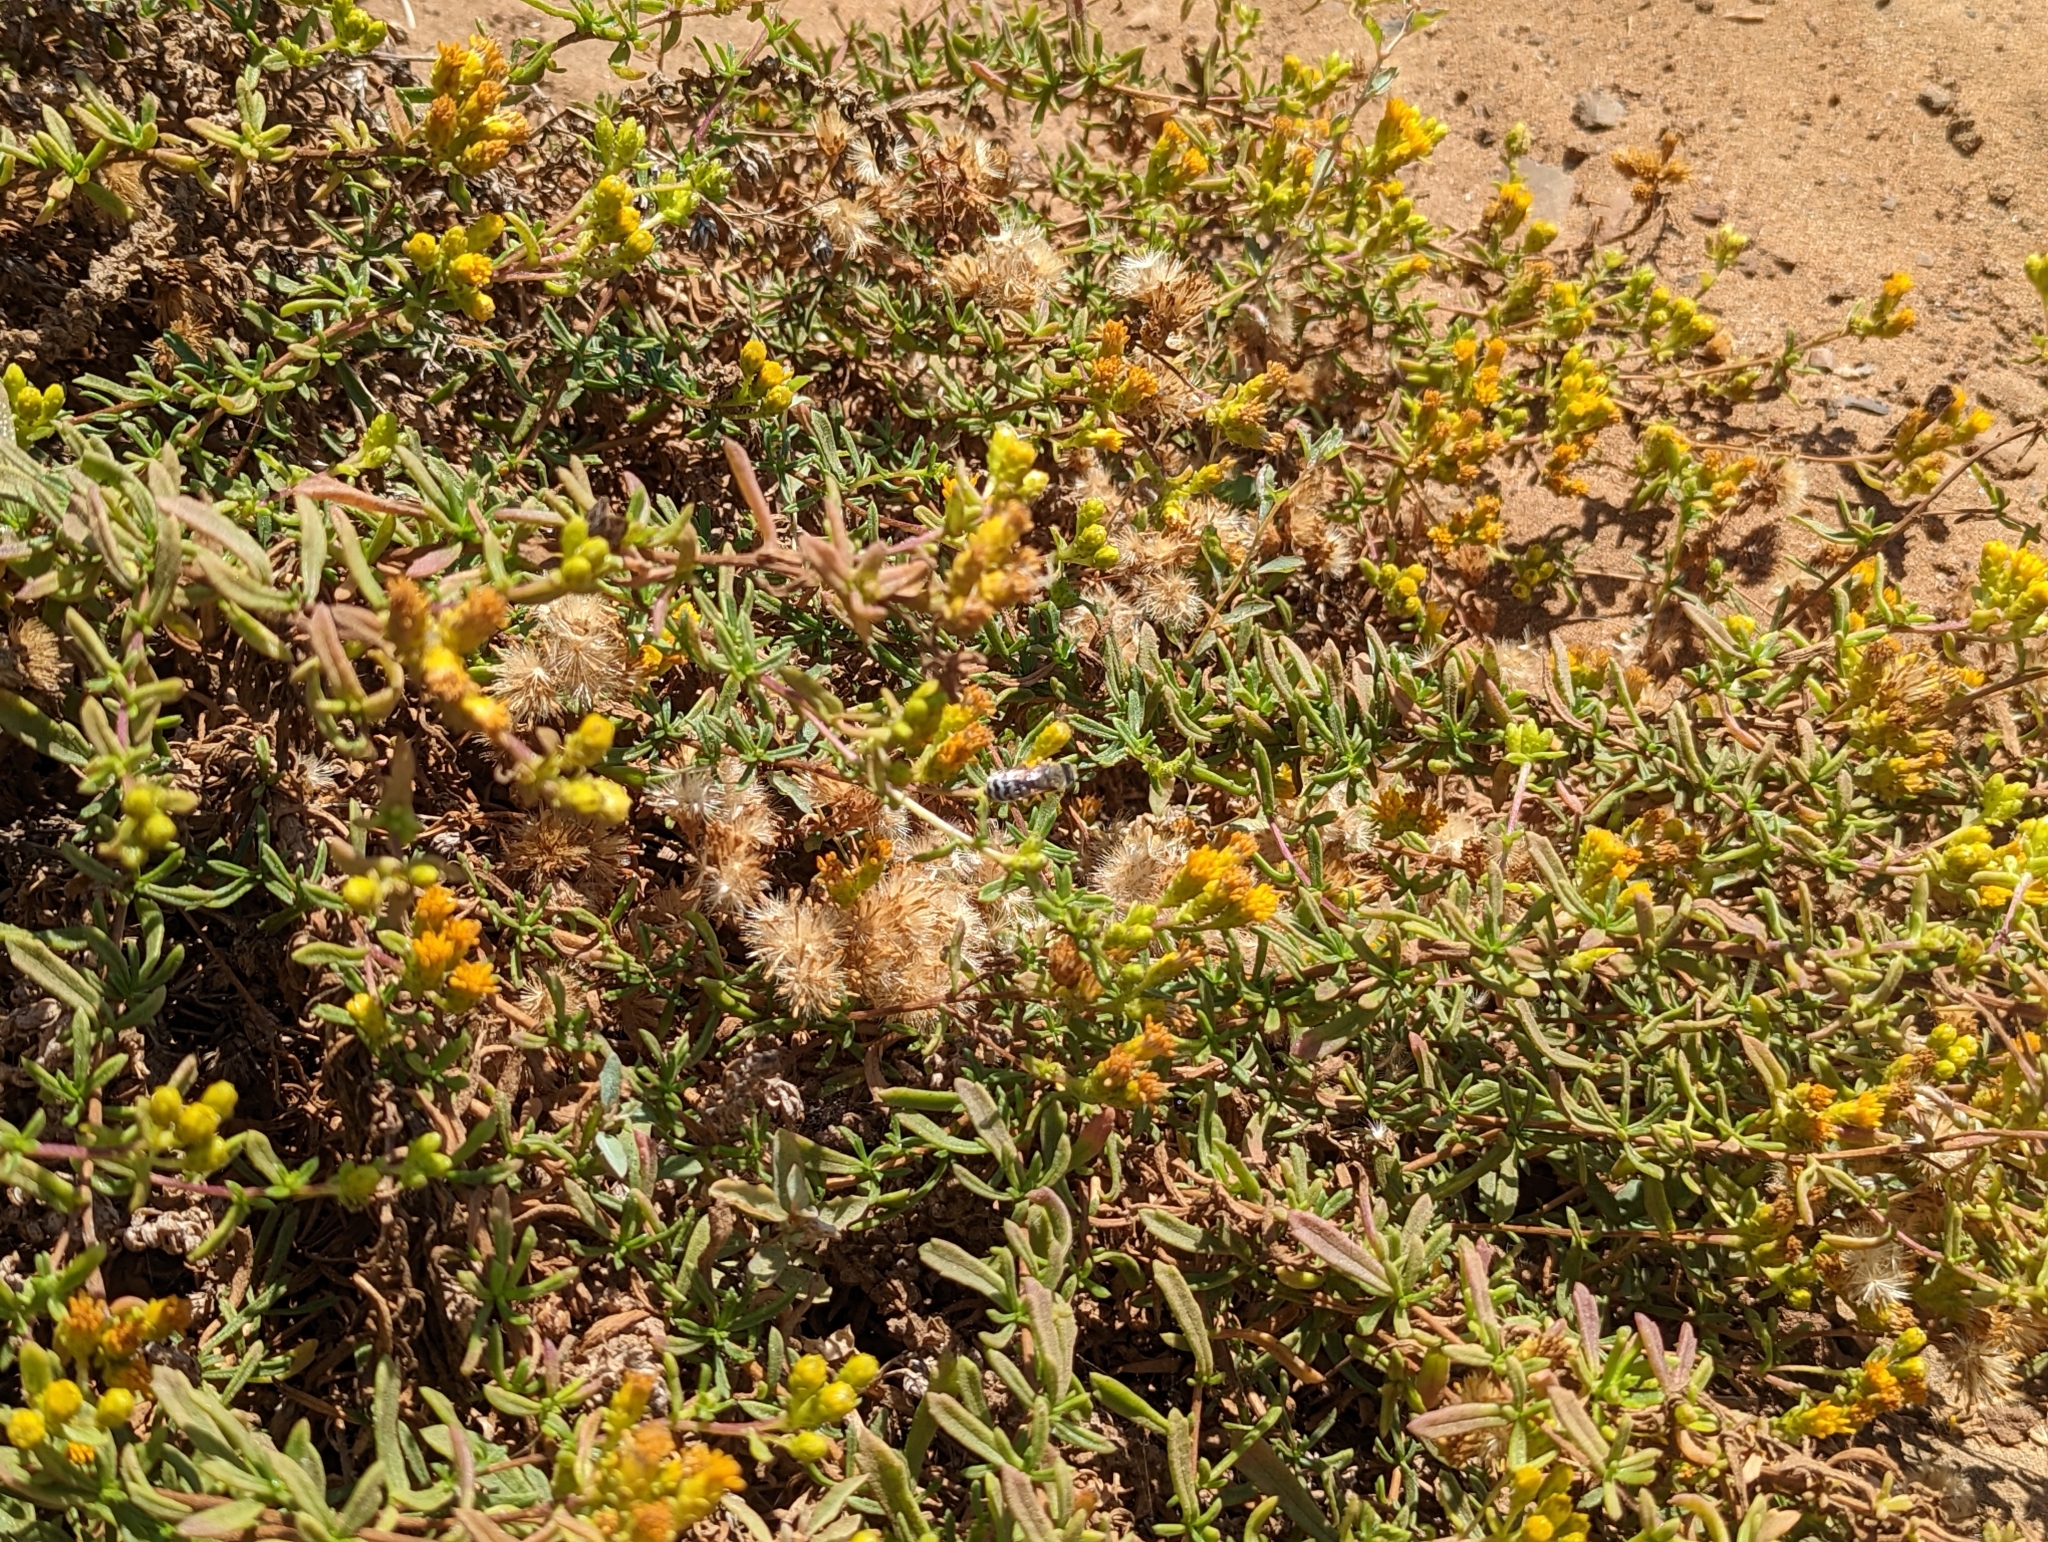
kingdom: Animalia
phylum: Arthropoda
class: Insecta
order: Hymenoptera
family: Crabronidae
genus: Bembix
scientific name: Bembix americana
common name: American sand wasp
